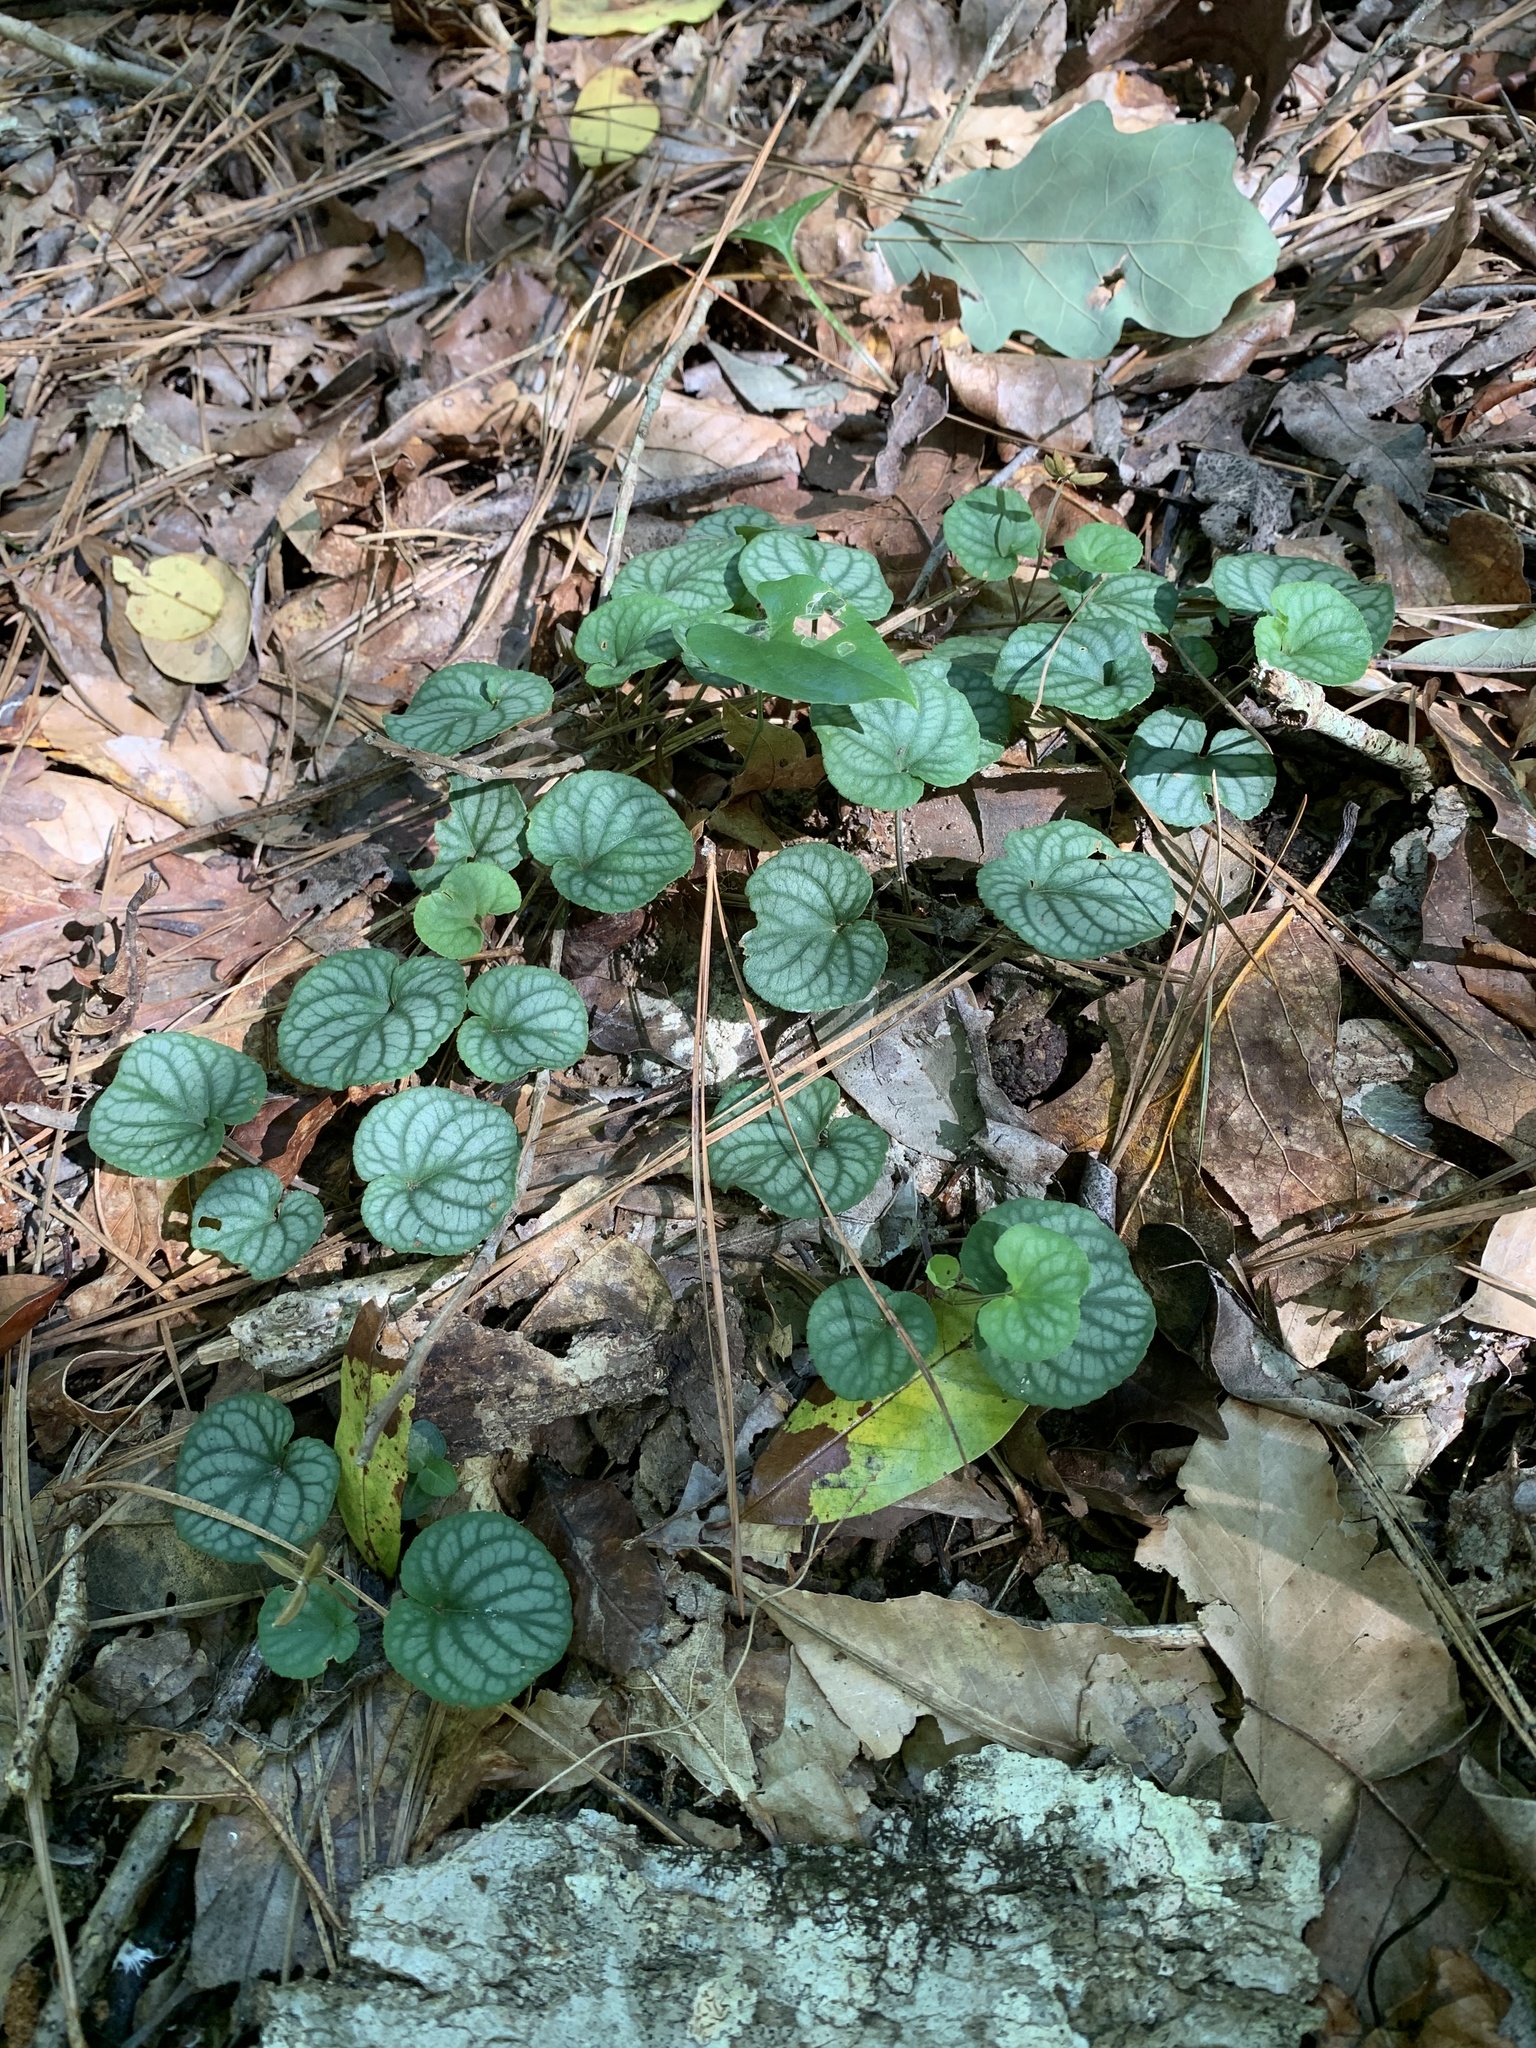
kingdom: Plantae
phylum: Tracheophyta
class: Magnoliopsida
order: Malpighiales
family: Violaceae
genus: Viola
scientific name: Viola walteri
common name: Prostrate southern violet
